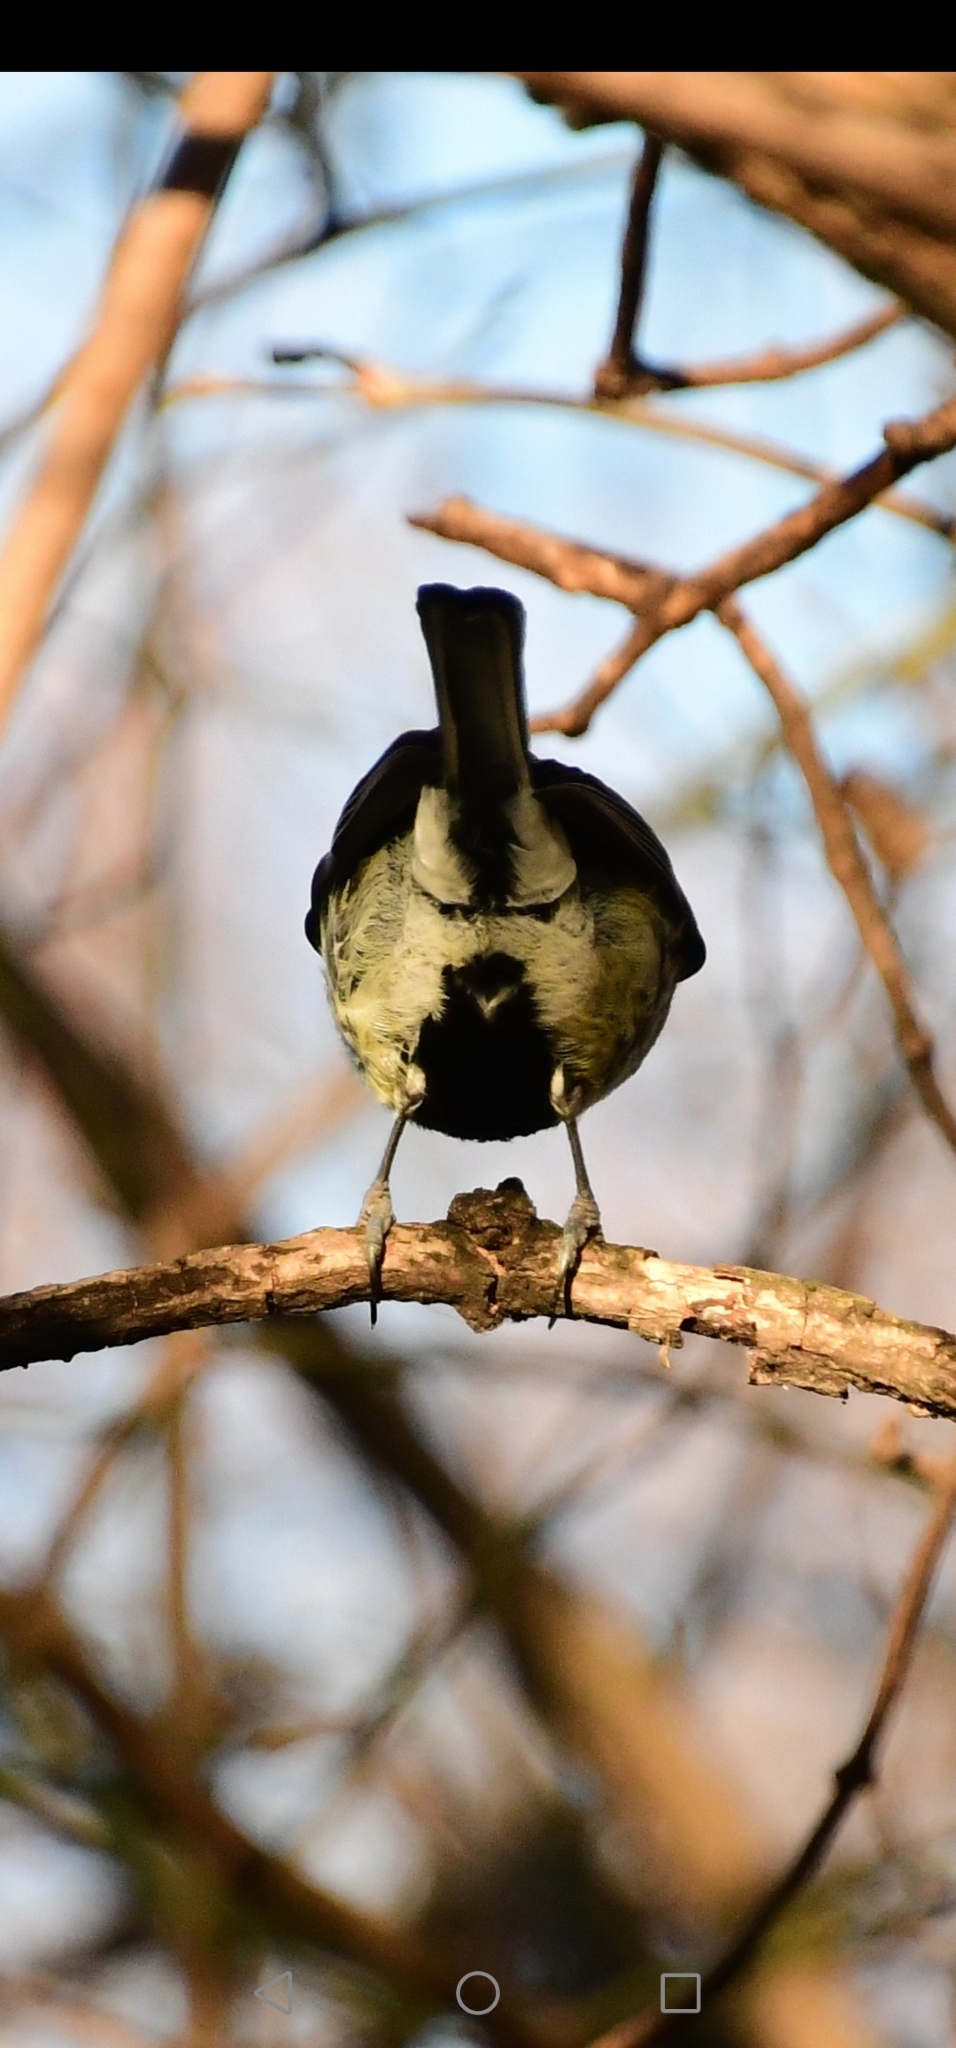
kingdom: Animalia
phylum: Chordata
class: Aves
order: Passeriformes
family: Paridae
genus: Parus
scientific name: Parus major
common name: Great tit
